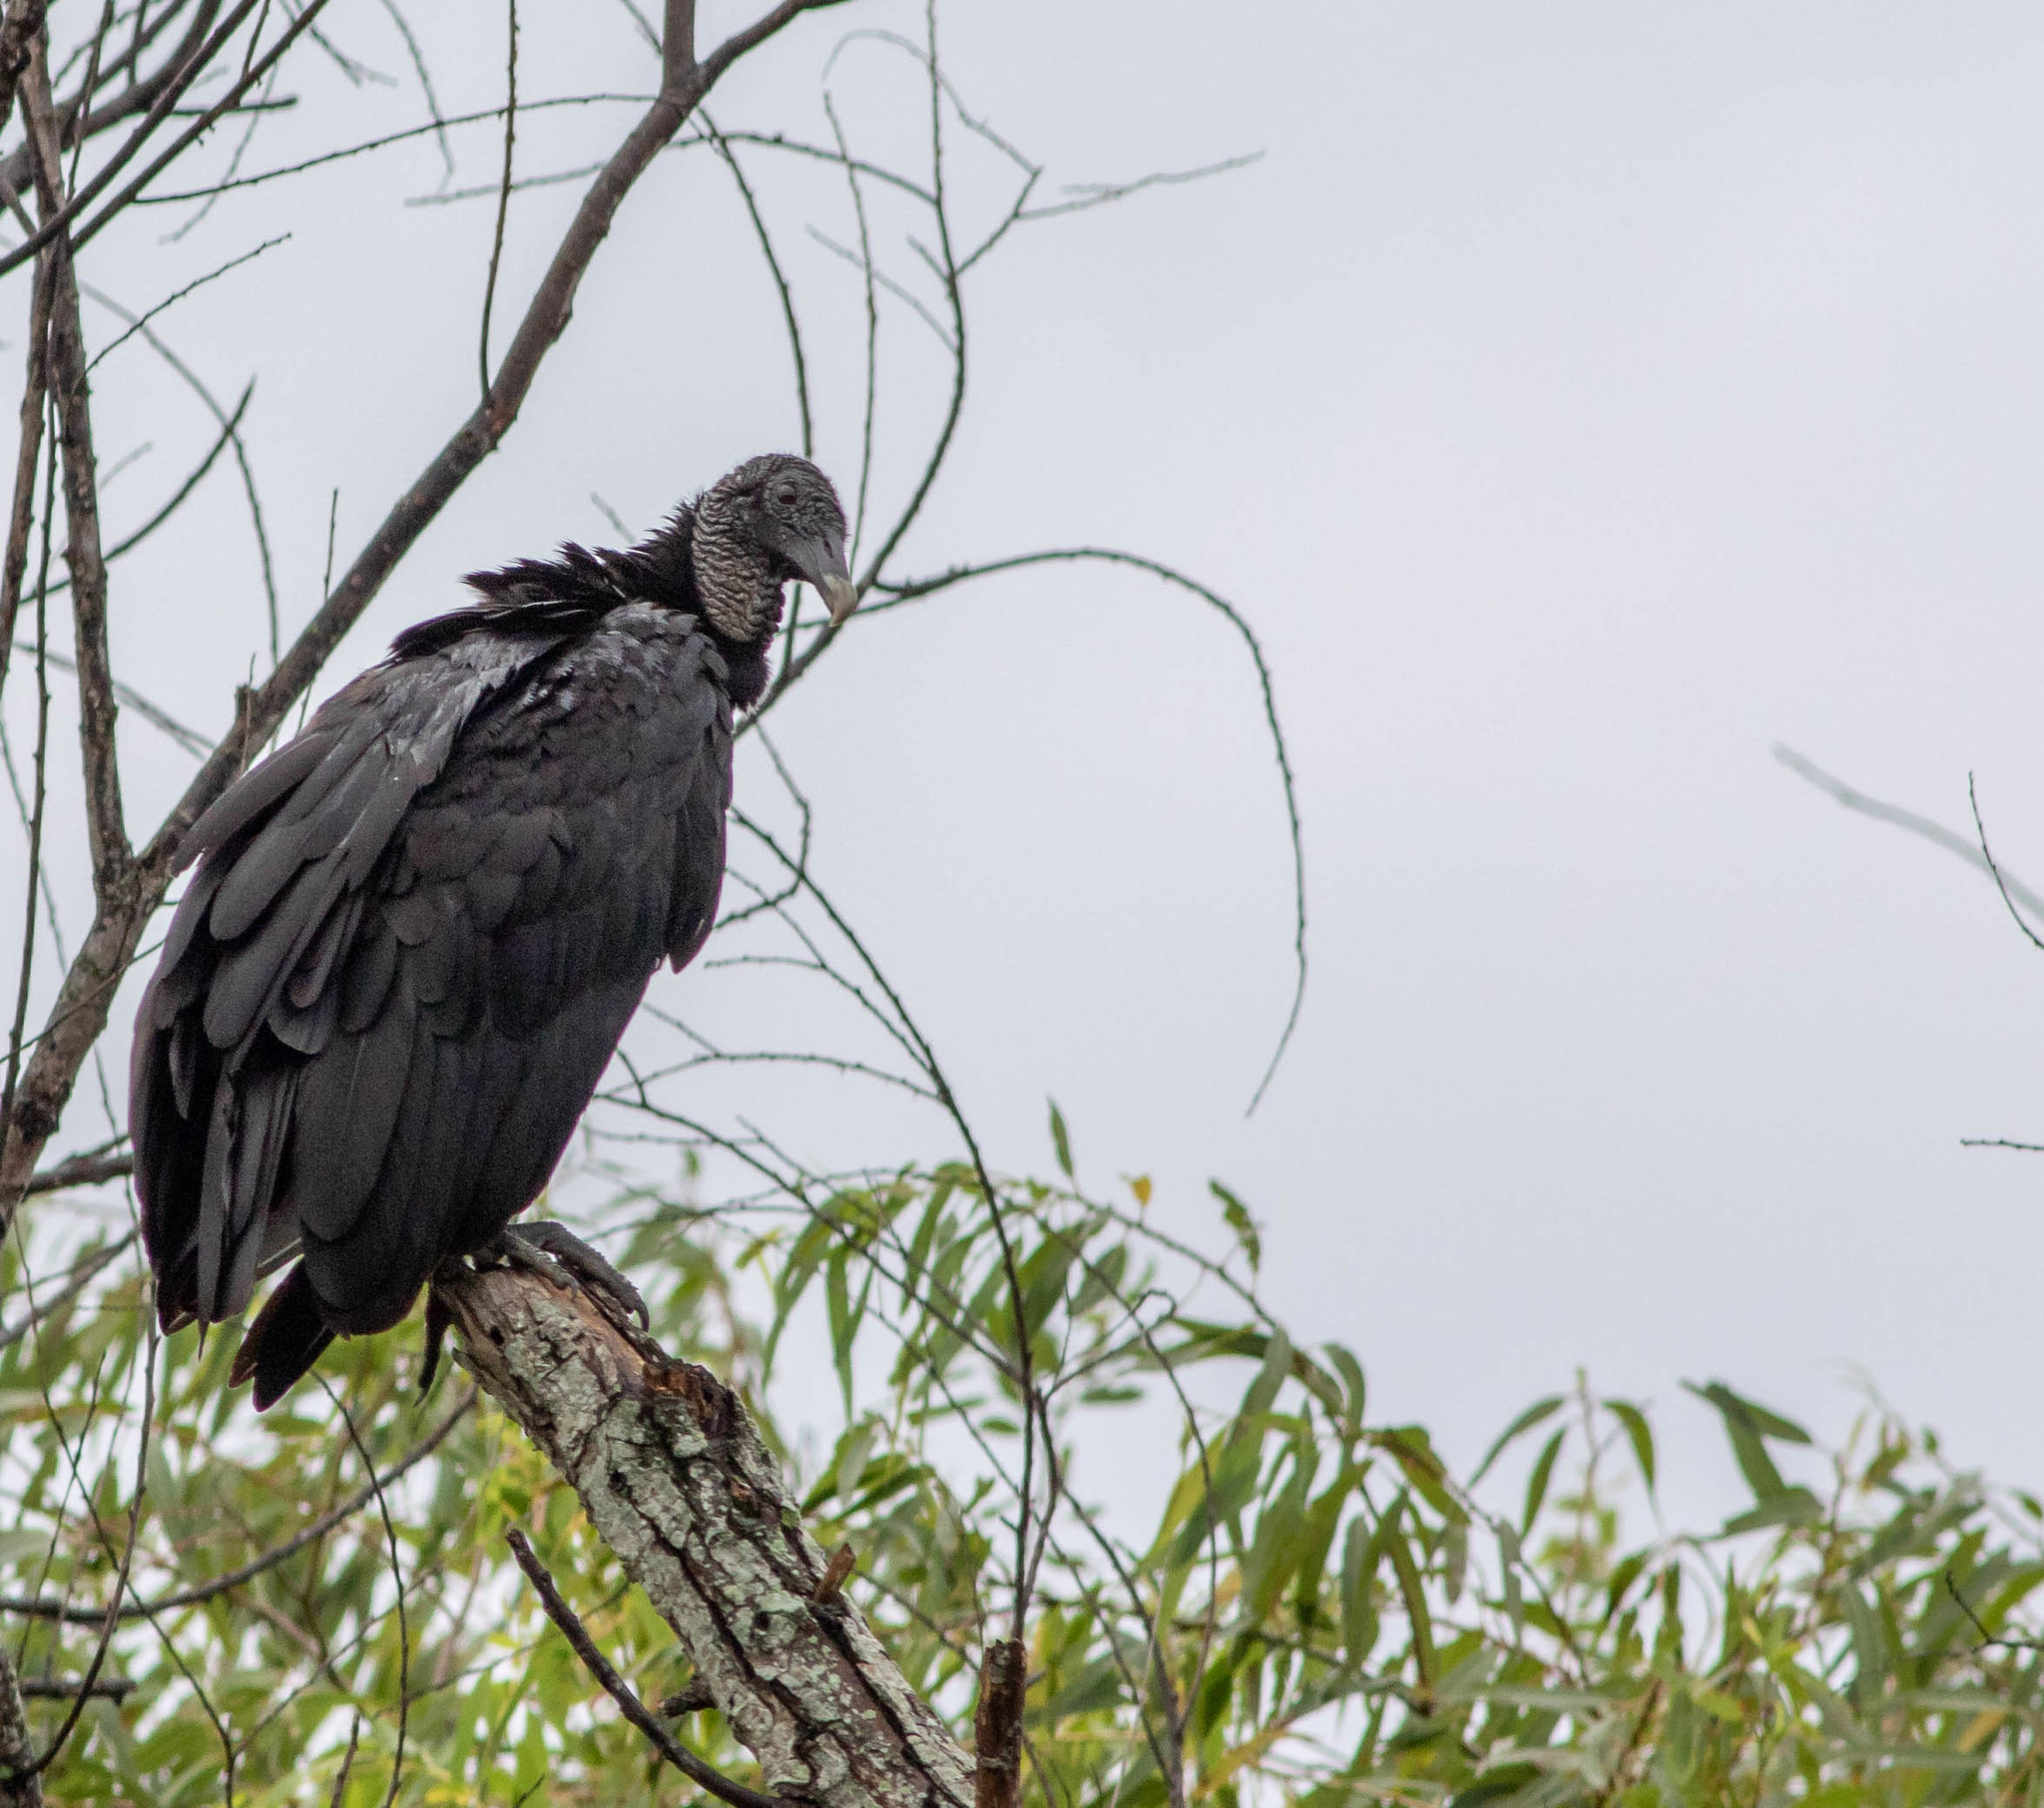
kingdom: Animalia
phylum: Chordata
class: Aves
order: Accipitriformes
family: Cathartidae
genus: Coragyps
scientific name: Coragyps atratus
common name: Black vulture
